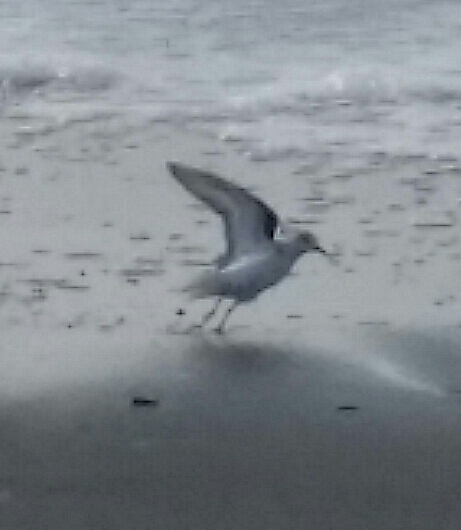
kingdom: Animalia
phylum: Chordata
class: Aves
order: Charadriiformes
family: Scolopacidae
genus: Calidris
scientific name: Calidris alba
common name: Sanderling
